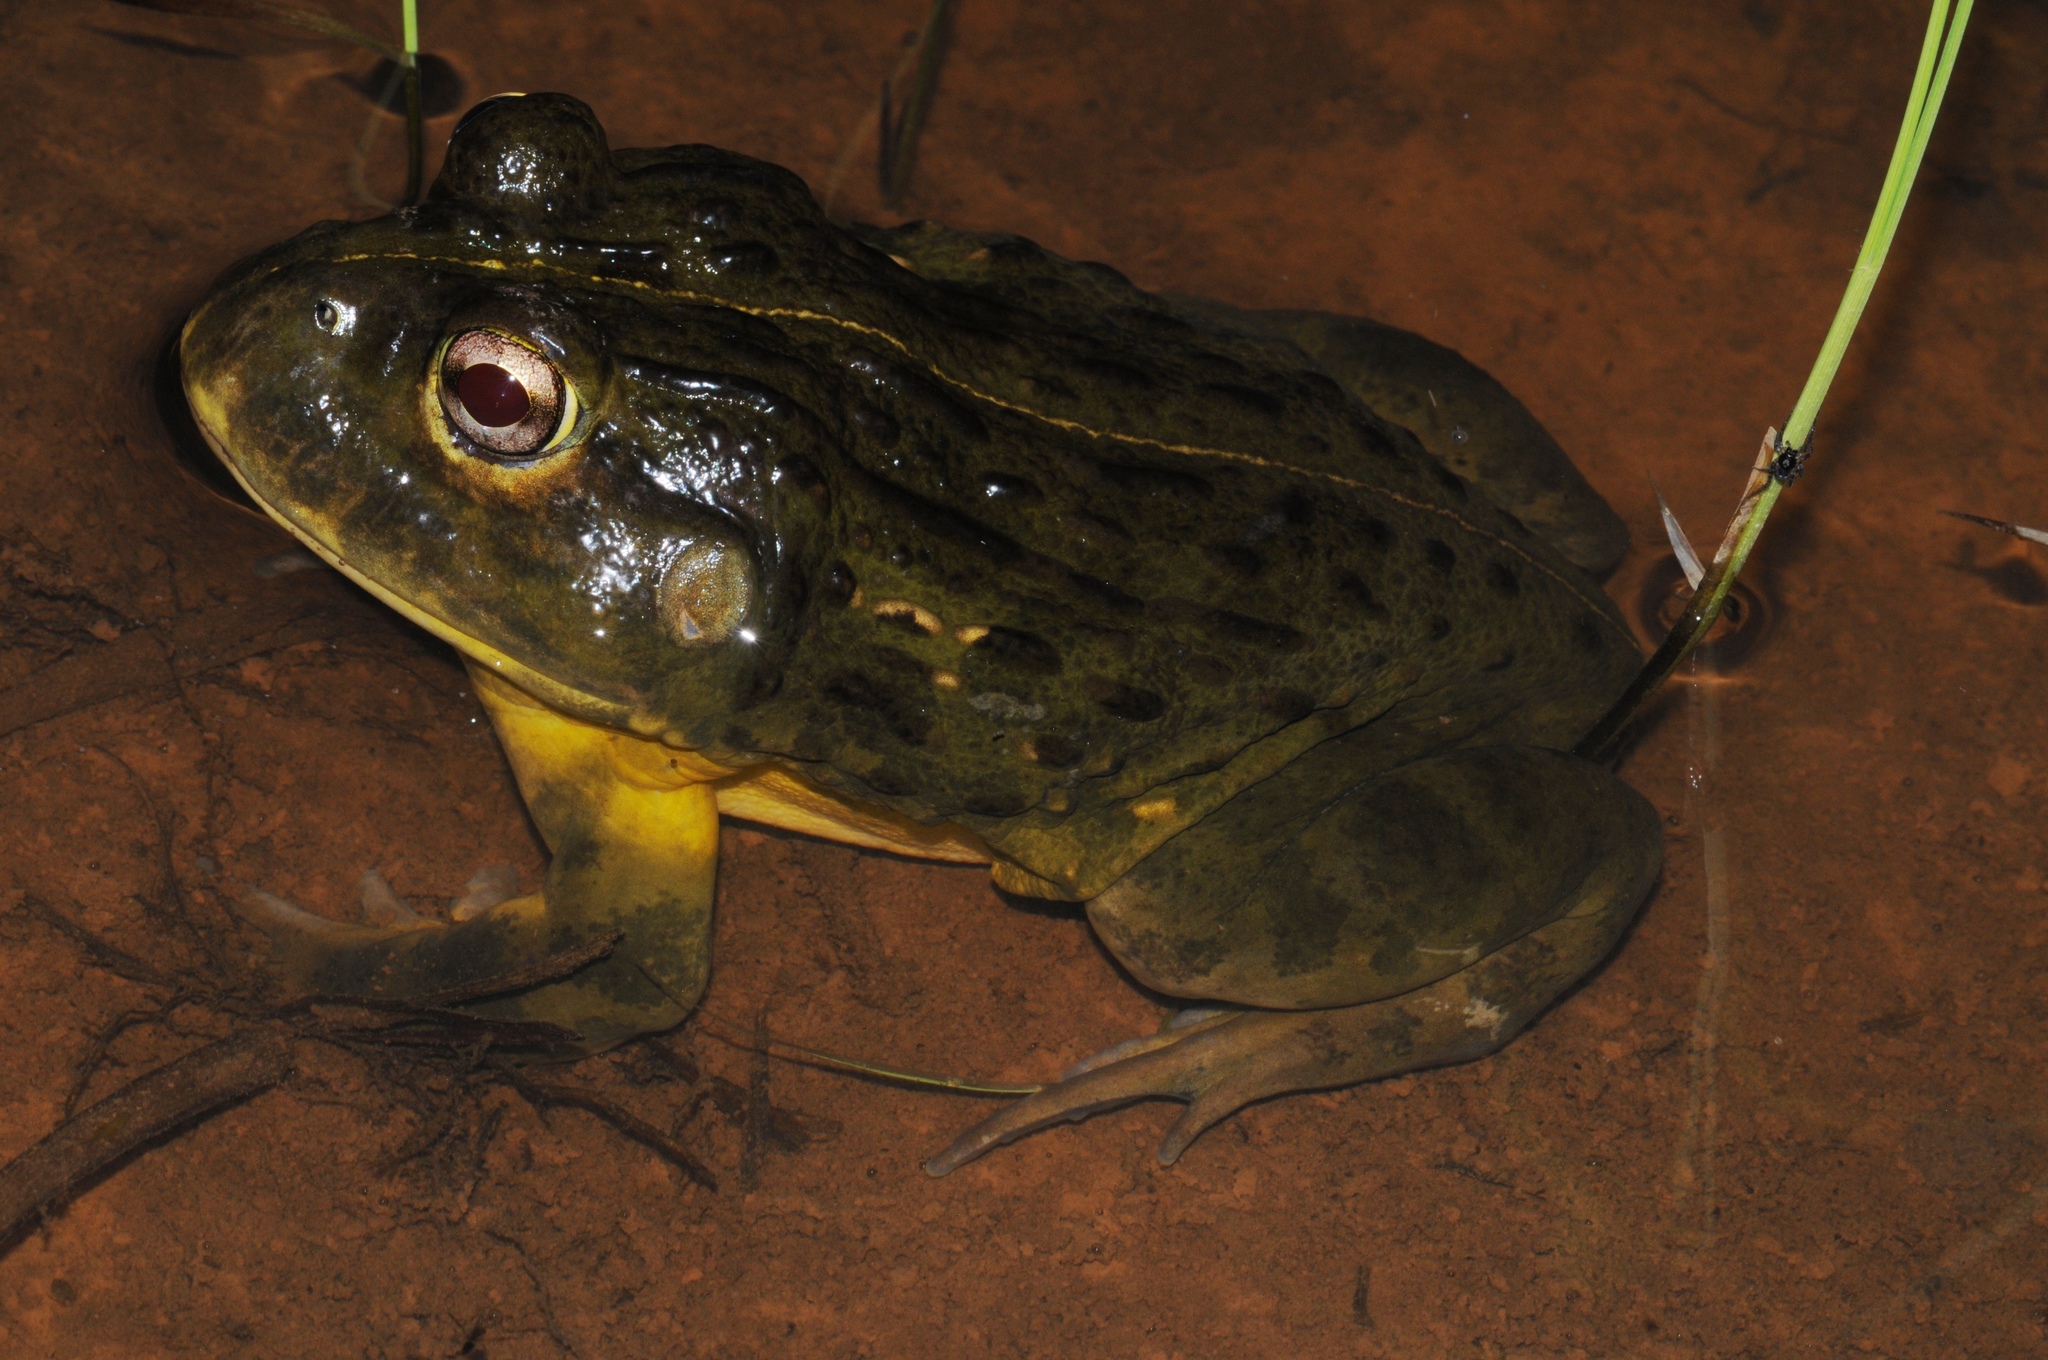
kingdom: Animalia
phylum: Chordata
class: Amphibia
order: Anura
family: Pyxicephalidae
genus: Pyxicephalus
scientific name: Pyxicephalus edulis
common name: Peter's bullfrog
